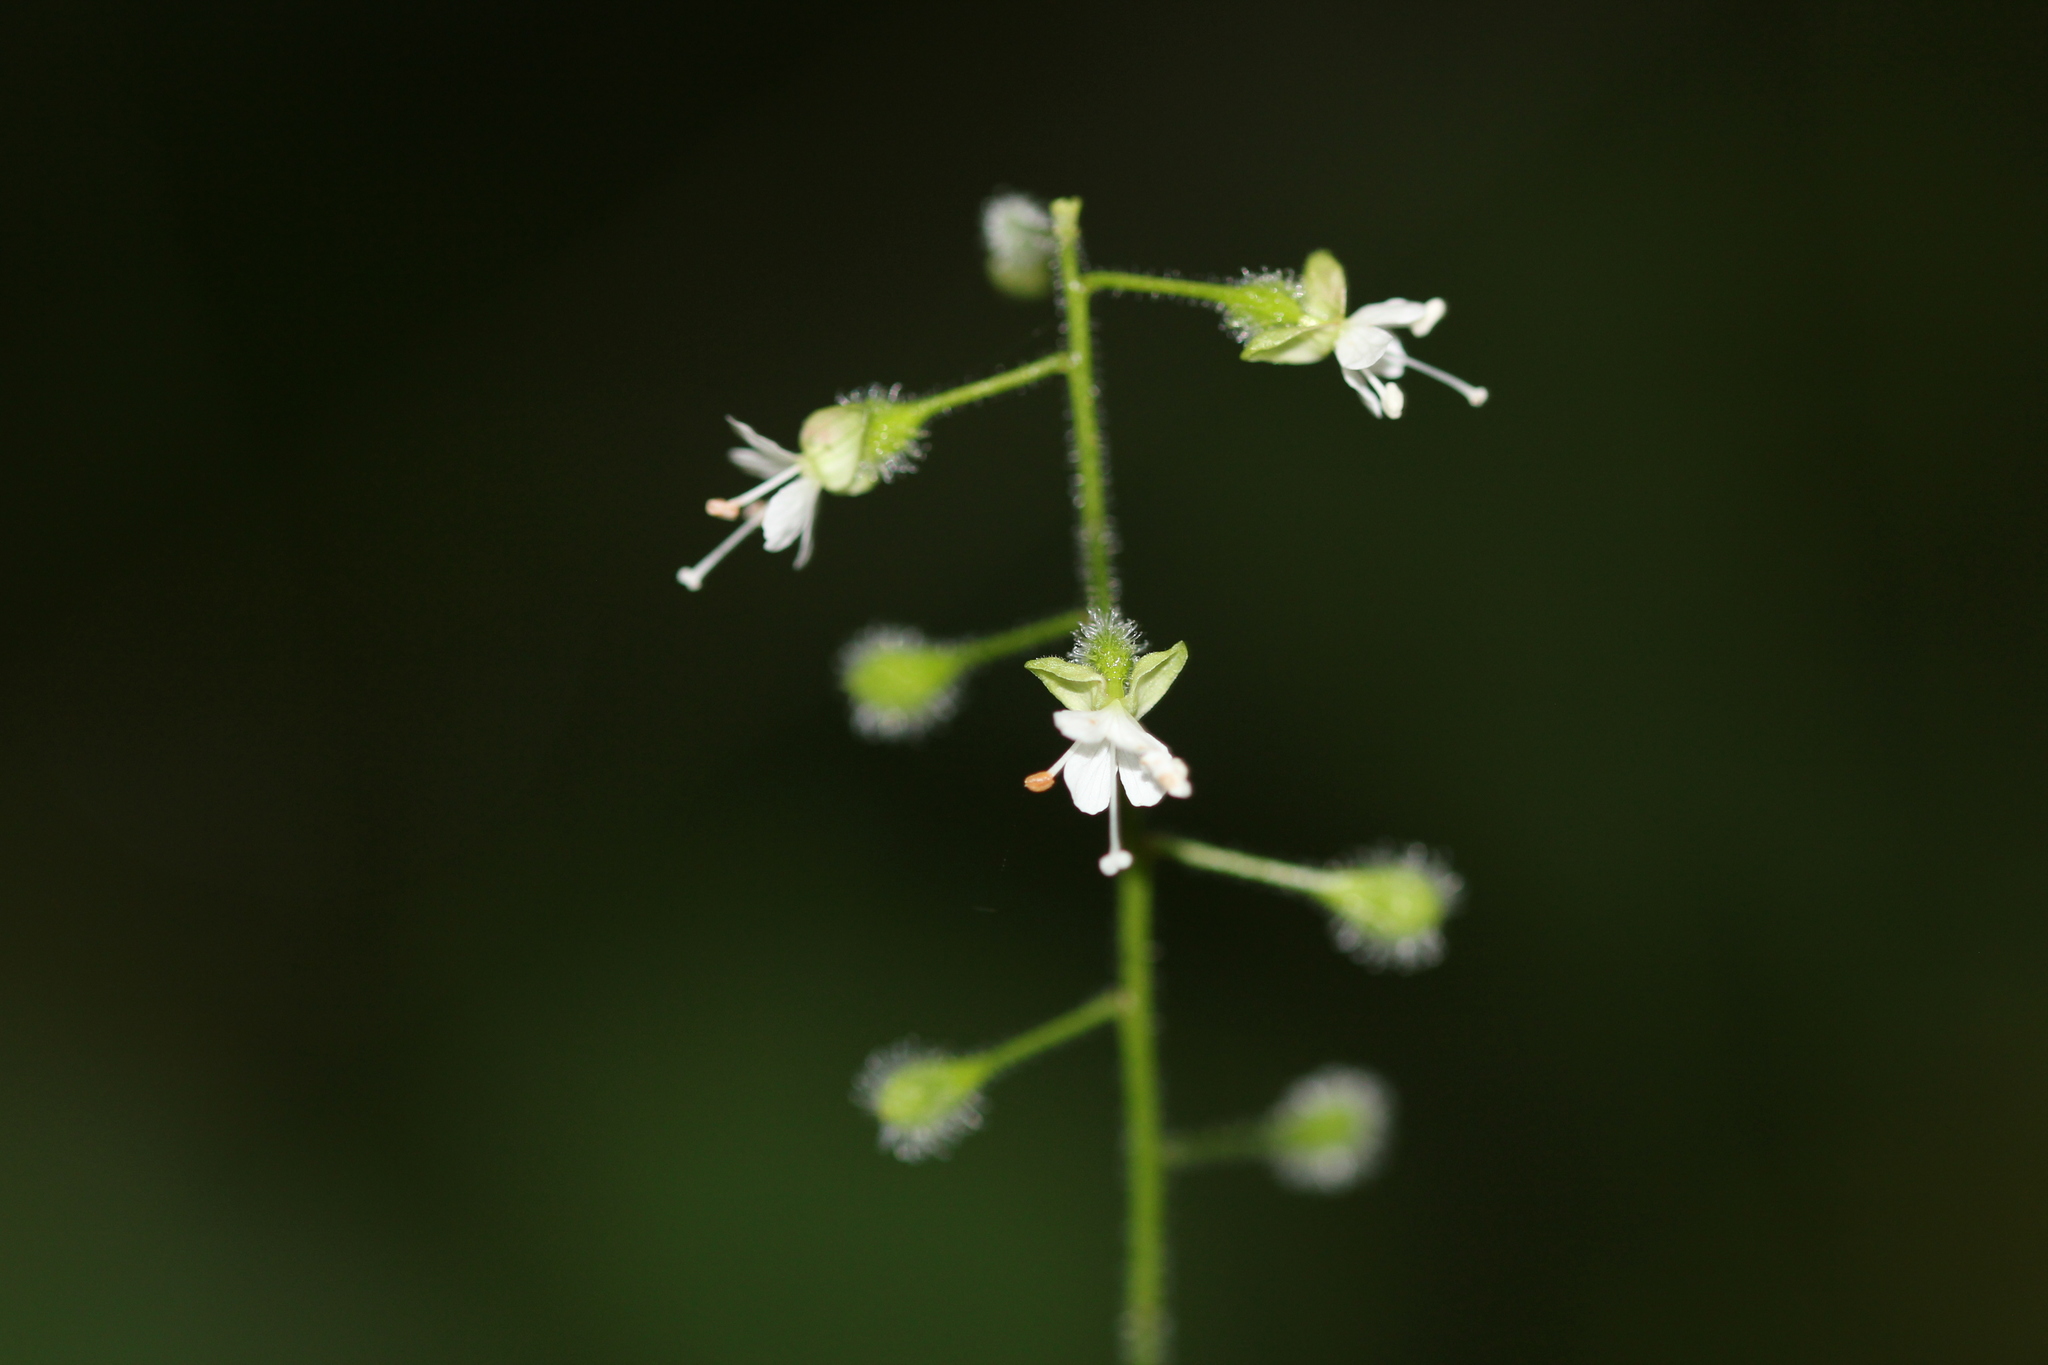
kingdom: Plantae
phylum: Tracheophyta
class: Magnoliopsida
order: Myrtales
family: Onagraceae
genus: Circaea
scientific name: Circaea canadensis
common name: Broad-leaved enchanter's nightshade
